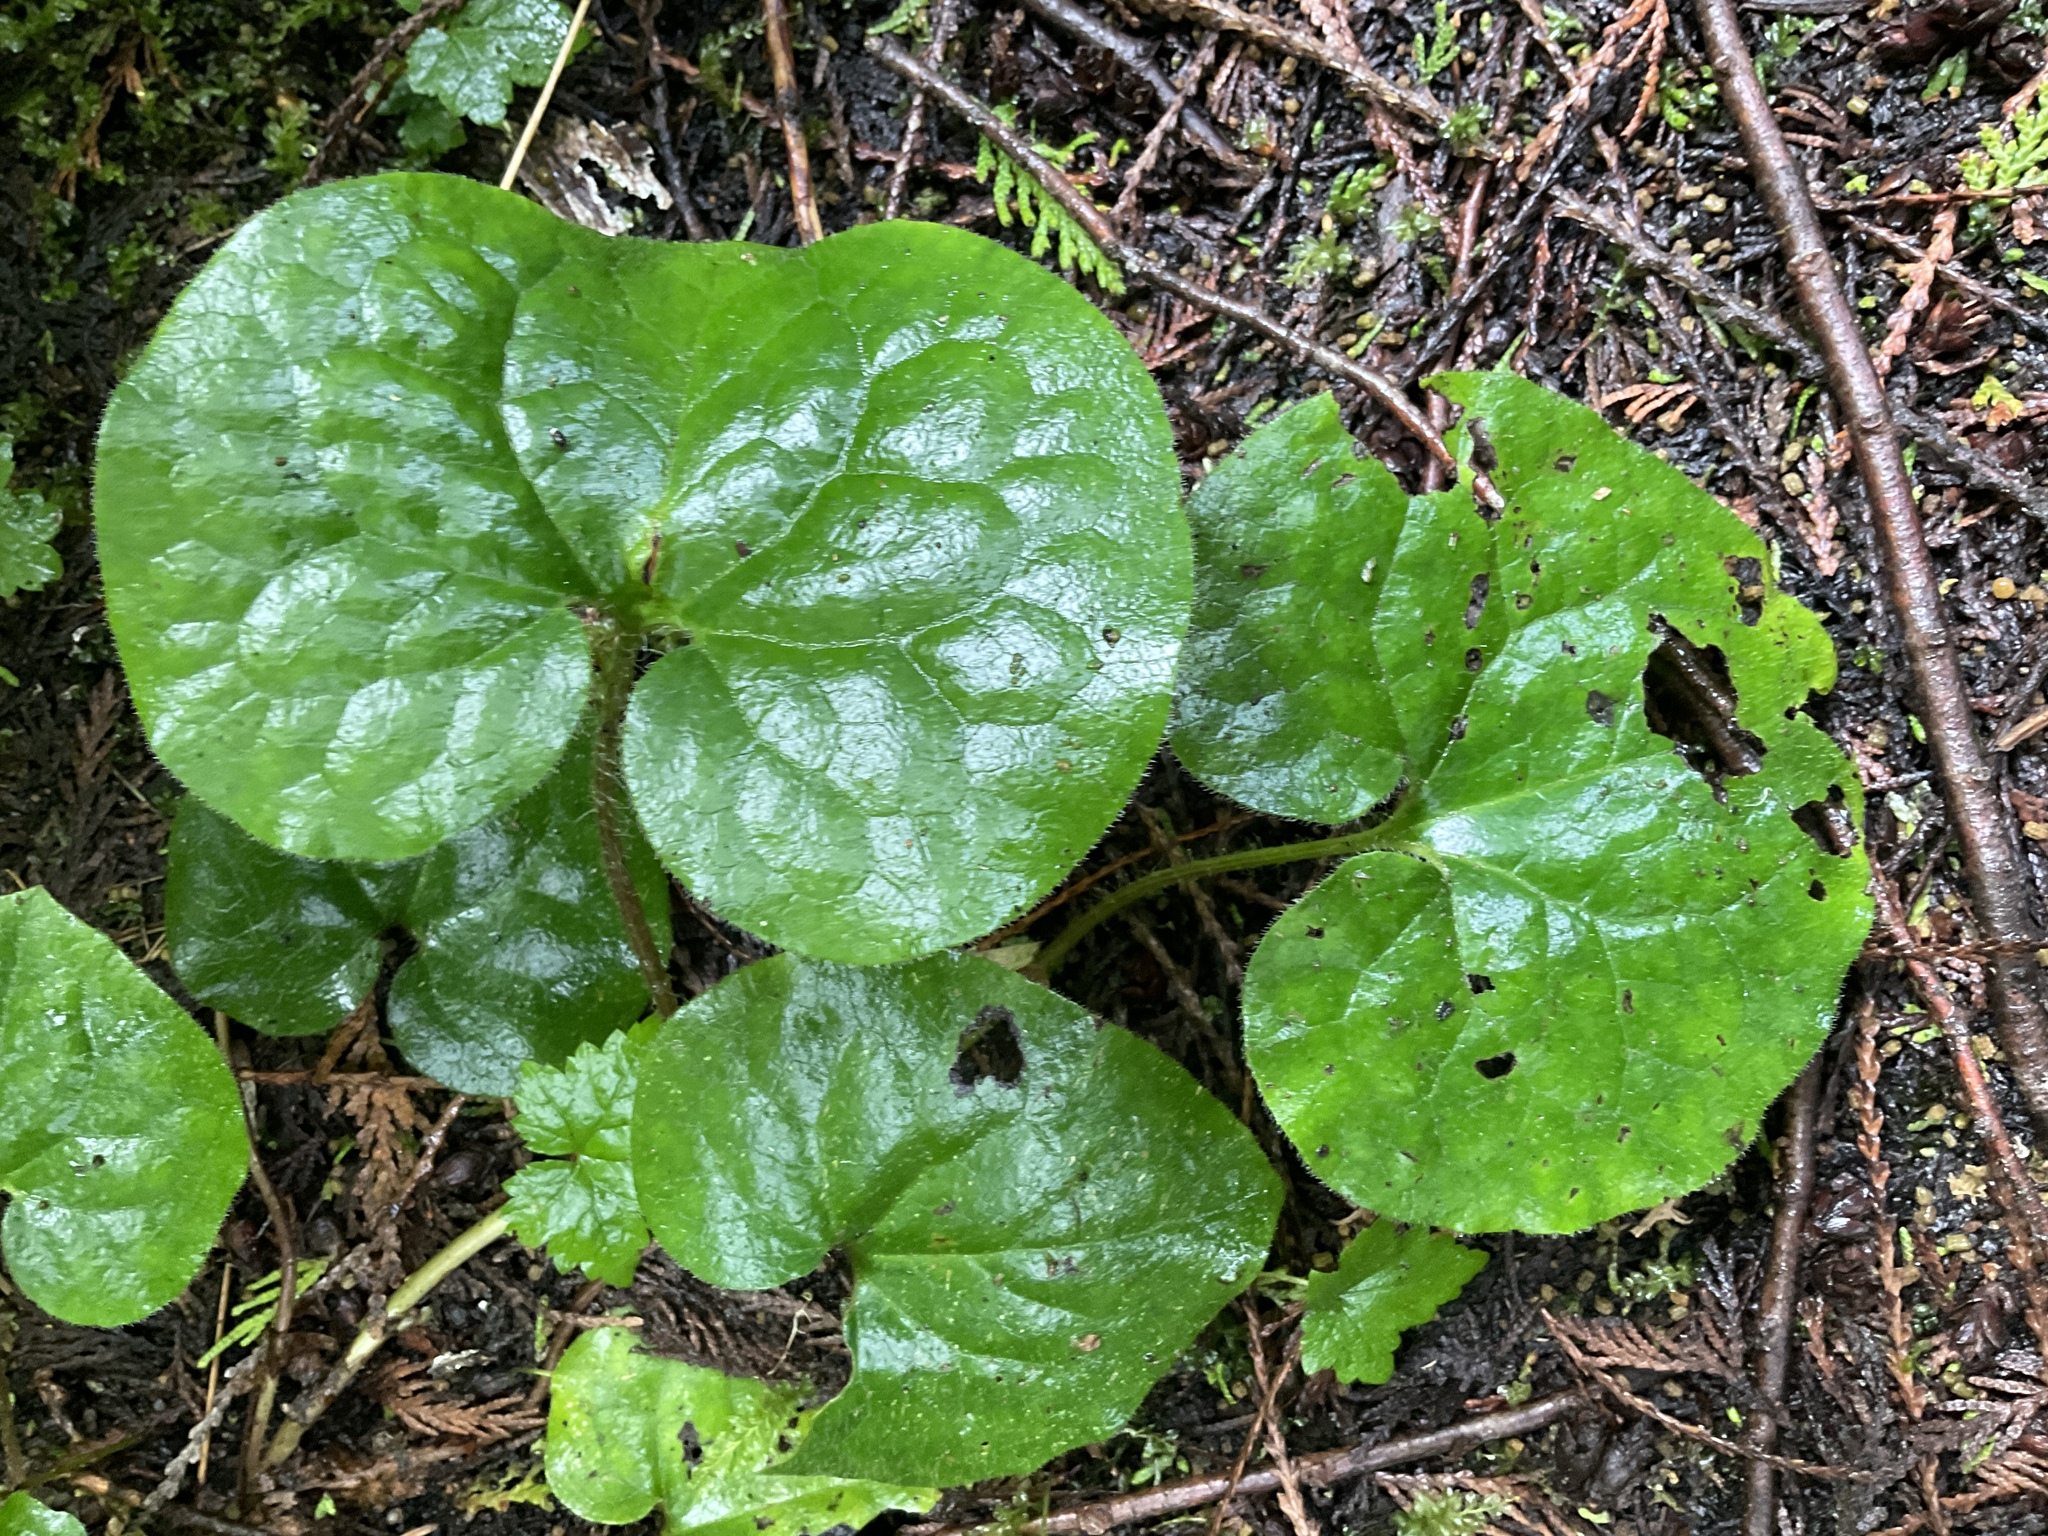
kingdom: Plantae
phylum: Tracheophyta
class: Magnoliopsida
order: Piperales
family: Aristolochiaceae
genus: Asarum
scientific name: Asarum caudatum
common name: Wild ginger
